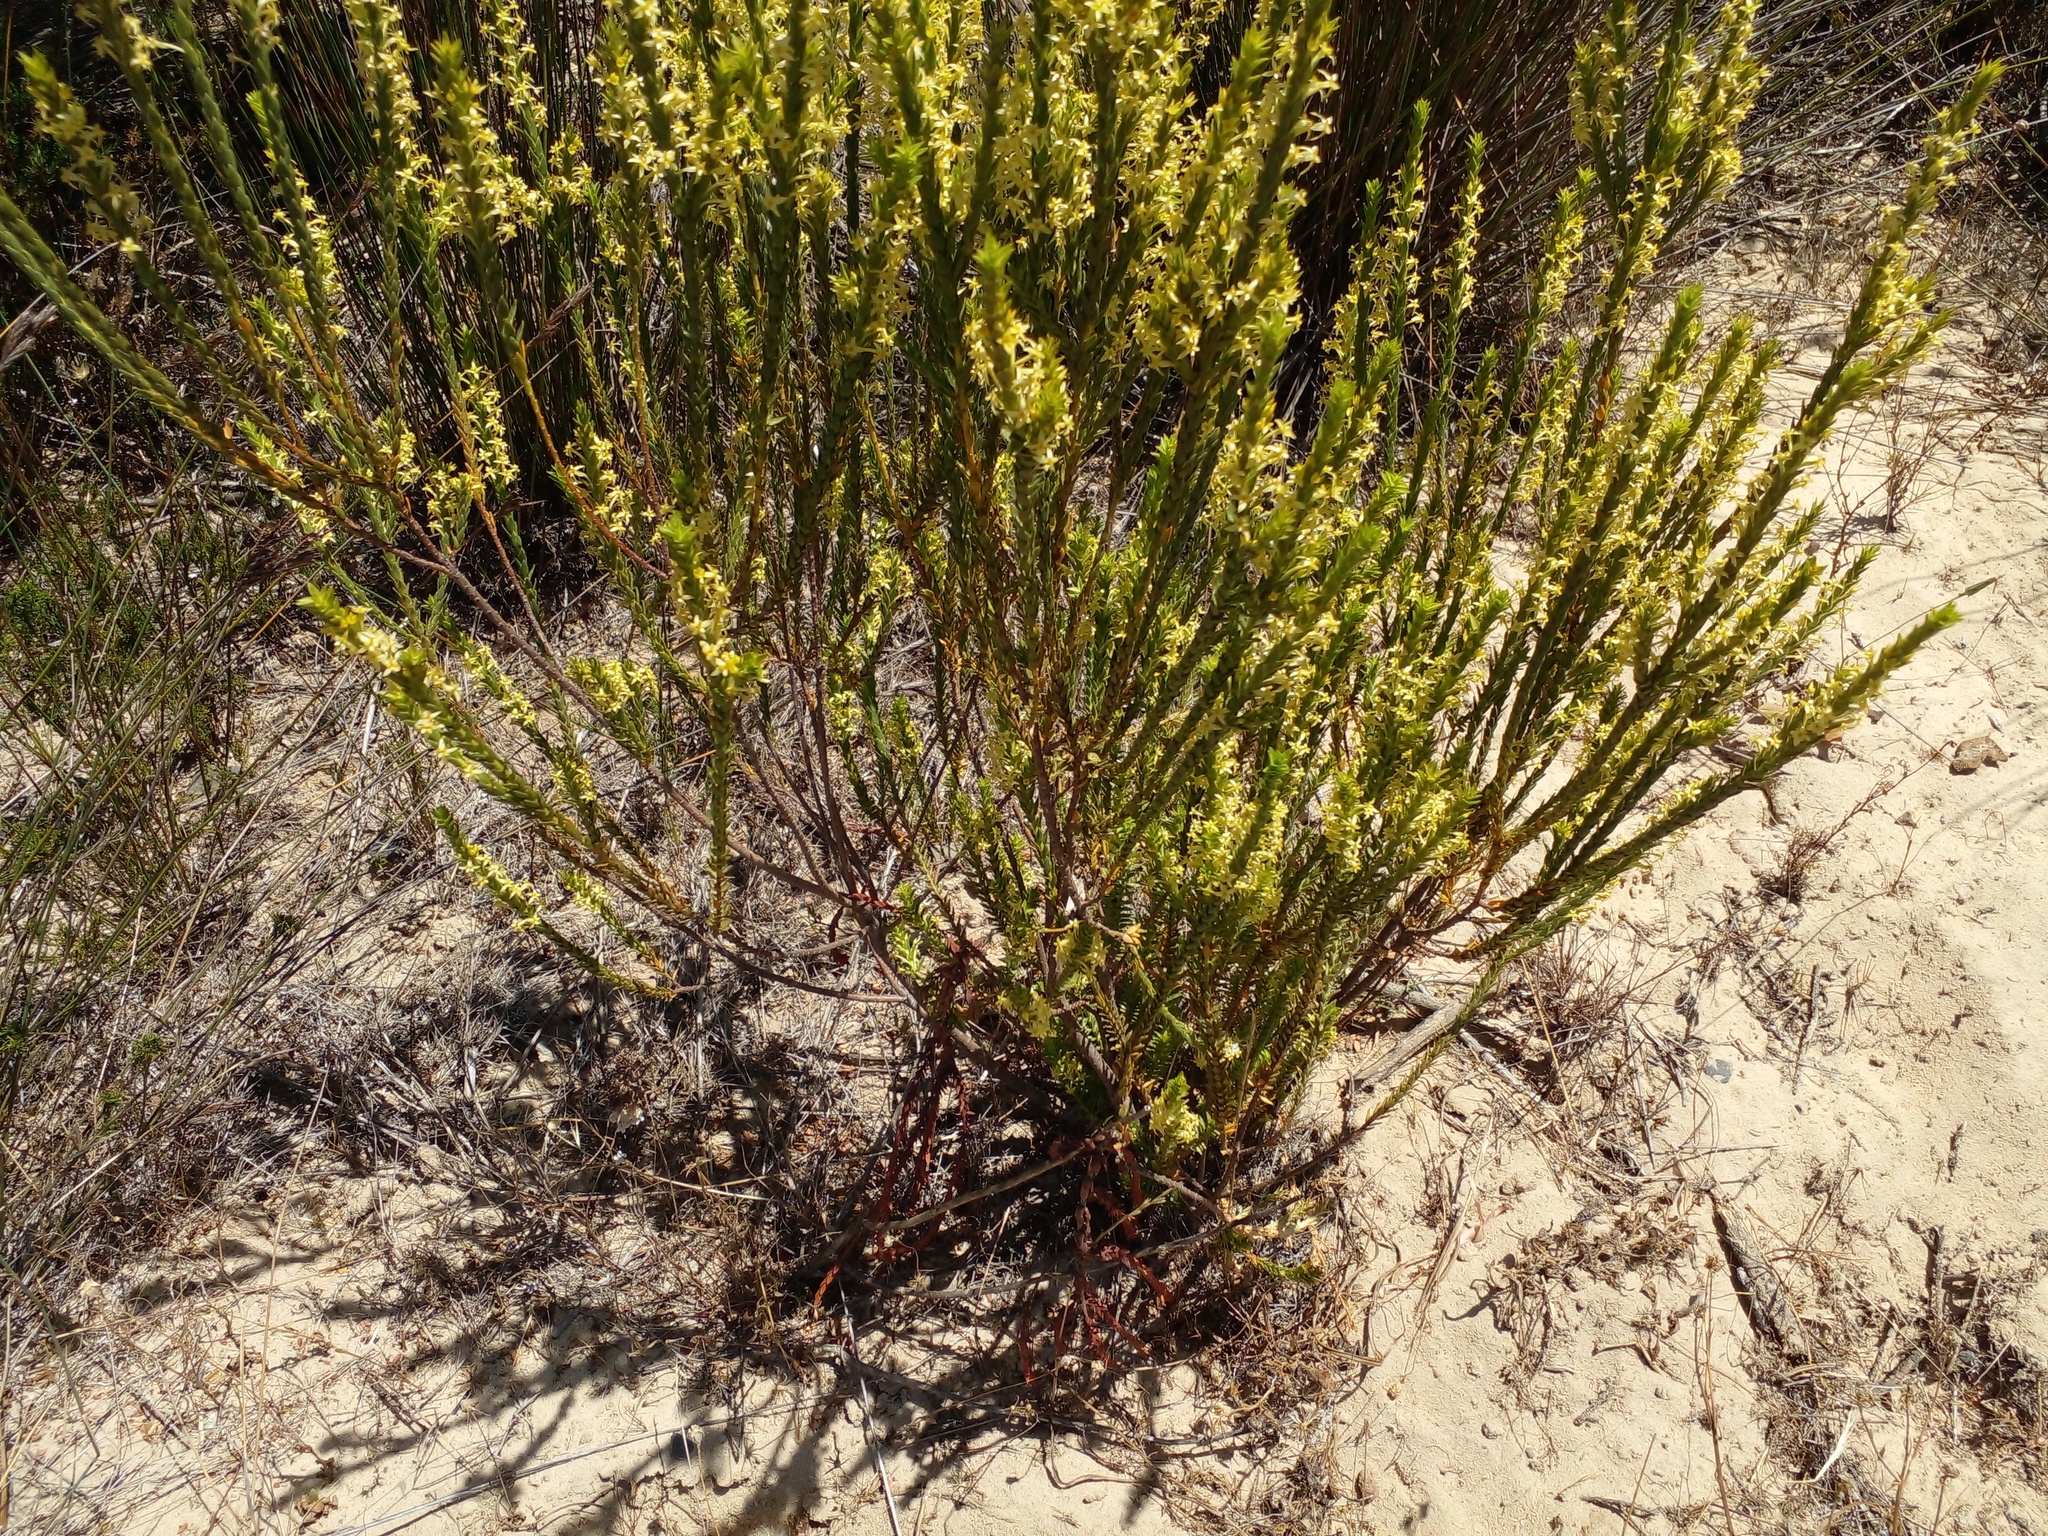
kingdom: Plantae
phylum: Tracheophyta
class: Magnoliopsida
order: Malvales
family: Thymelaeaceae
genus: Struthiola
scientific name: Struthiola striata
